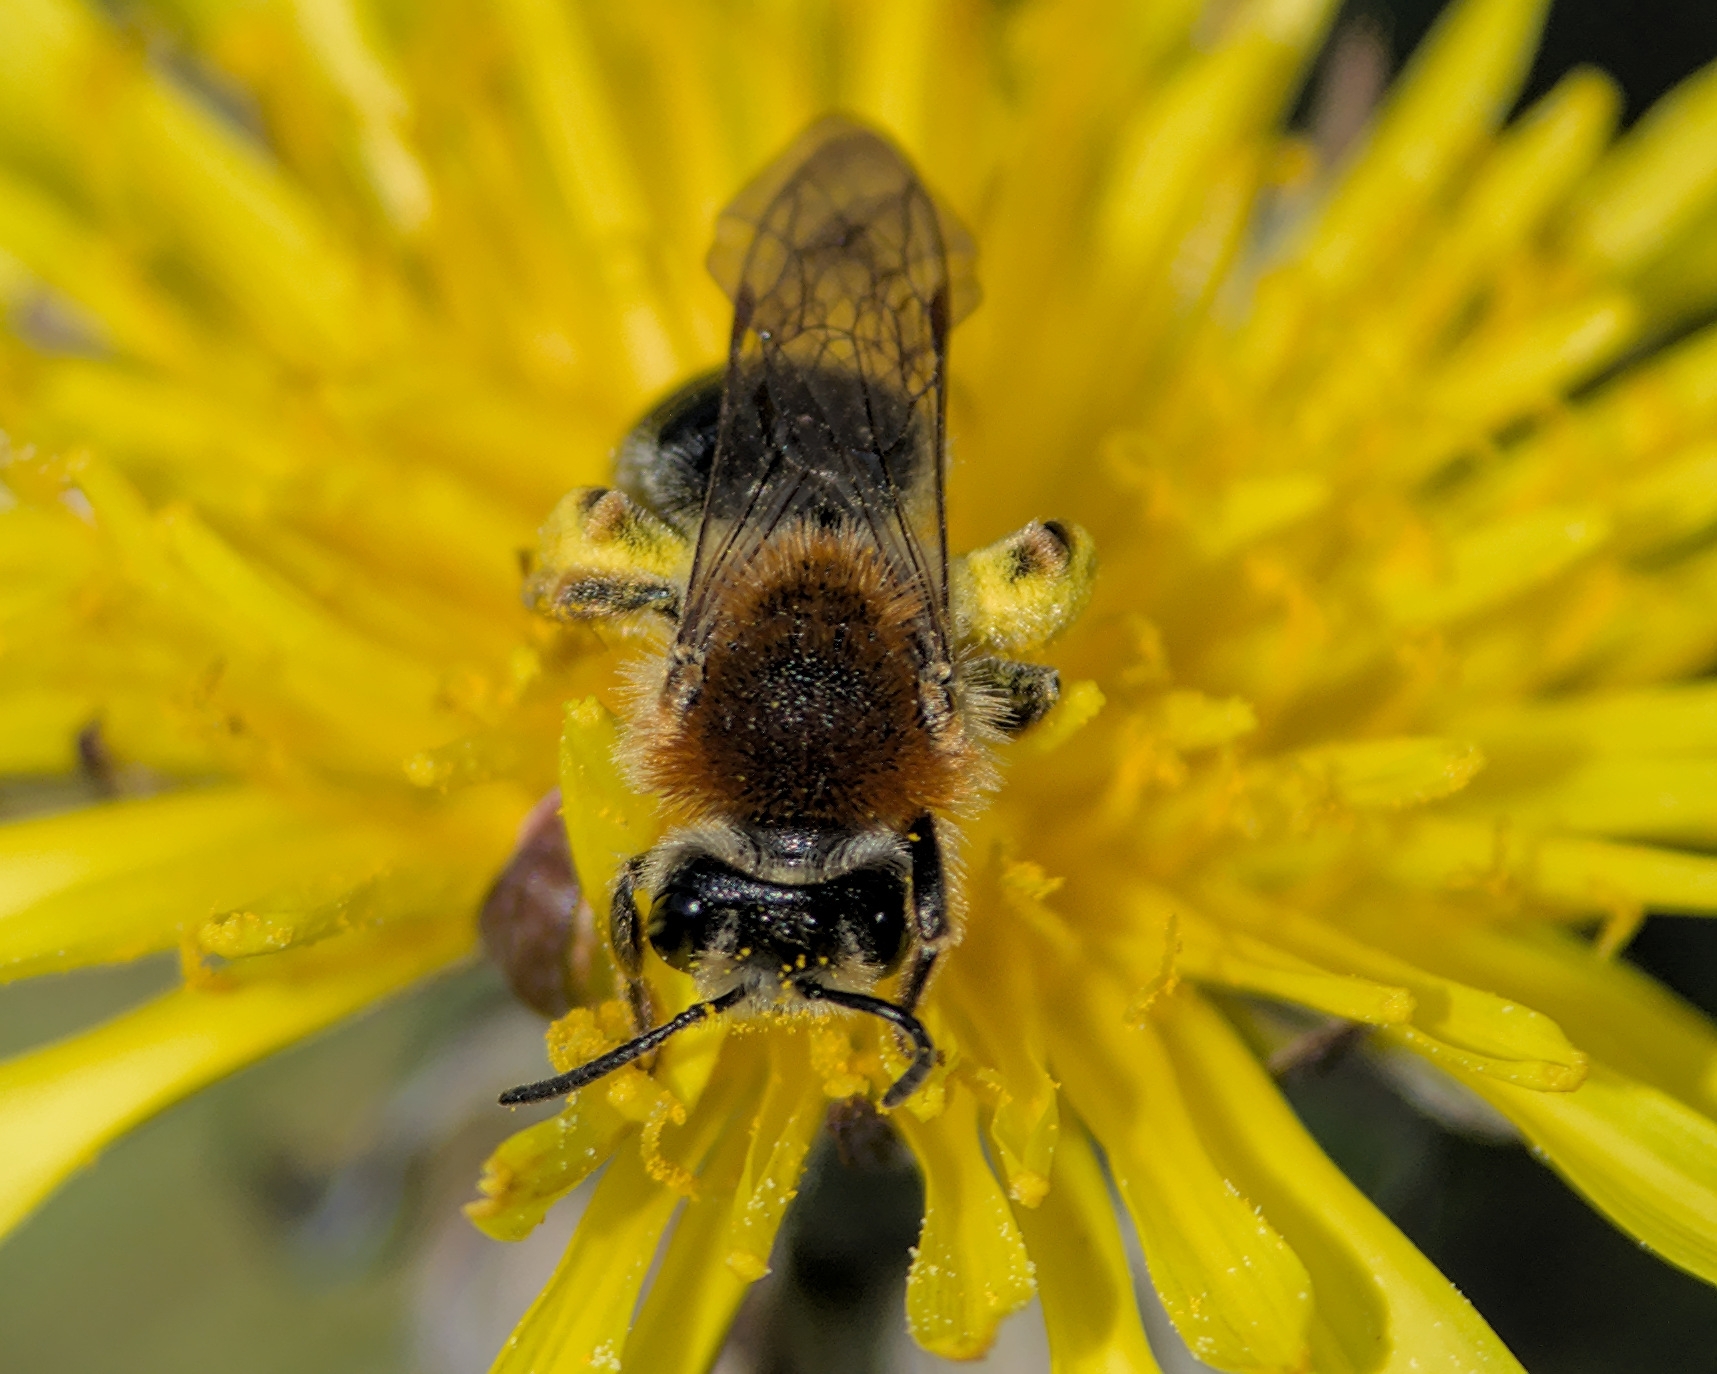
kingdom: Animalia
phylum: Arthropoda
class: Insecta
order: Hymenoptera
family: Andrenidae
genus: Andrena
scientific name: Andrena haemorrhoa
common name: Early mining bee
